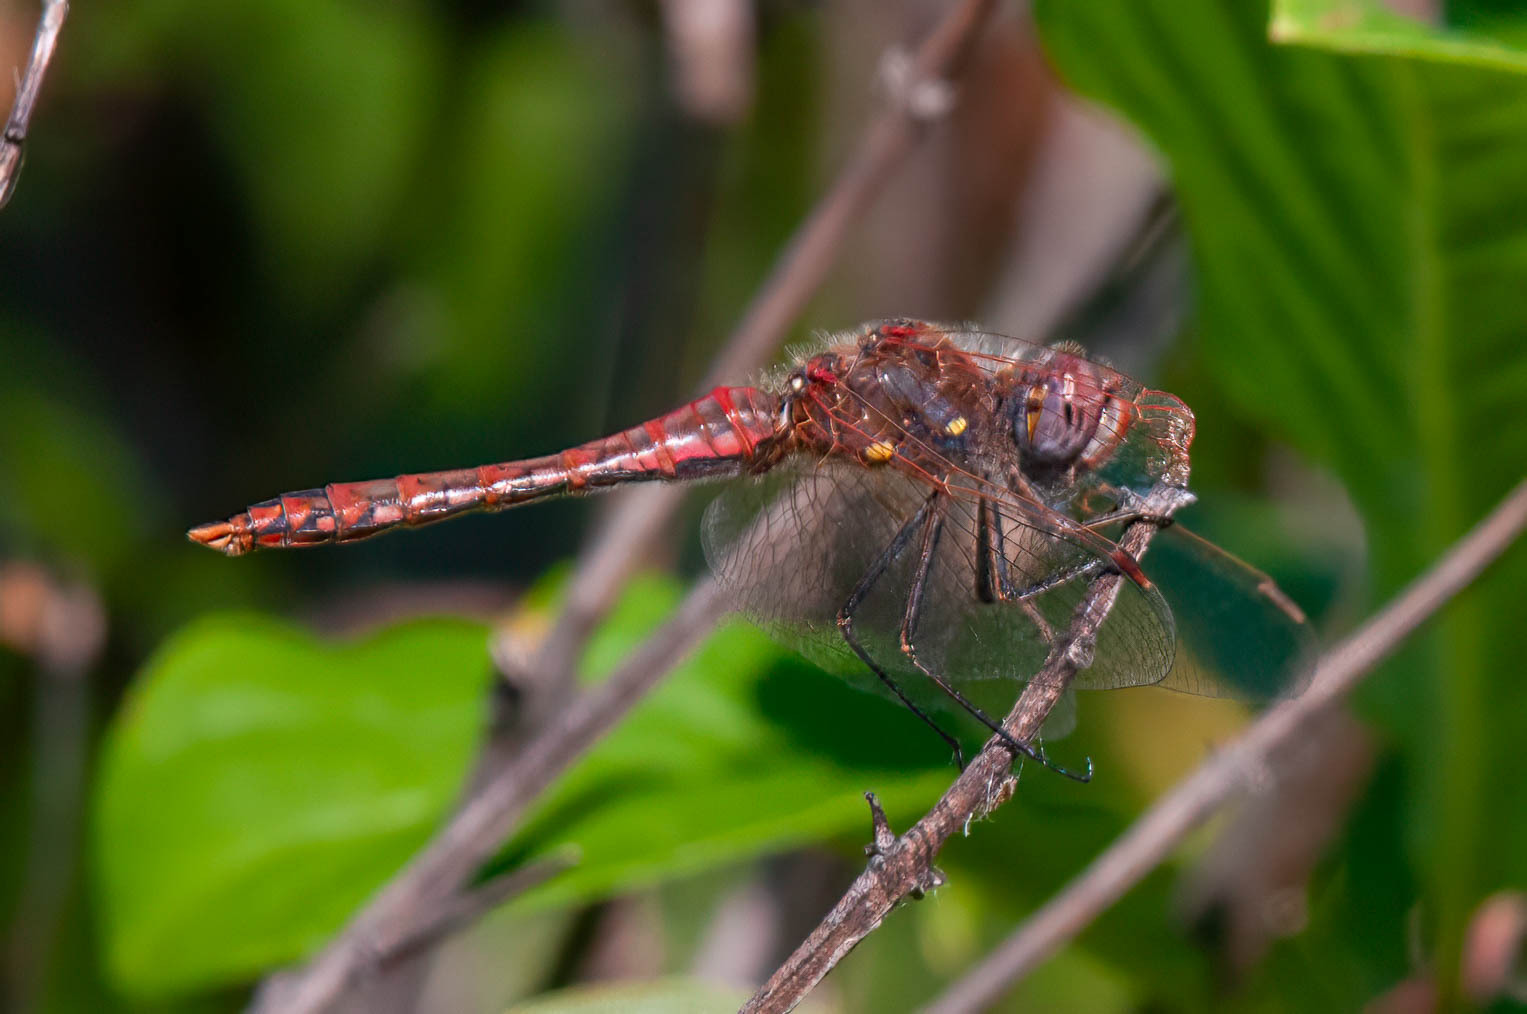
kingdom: Animalia
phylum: Arthropoda
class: Insecta
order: Odonata
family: Libellulidae
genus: Sympetrum
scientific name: Sympetrum corruptum
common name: Variegated meadowhawk
